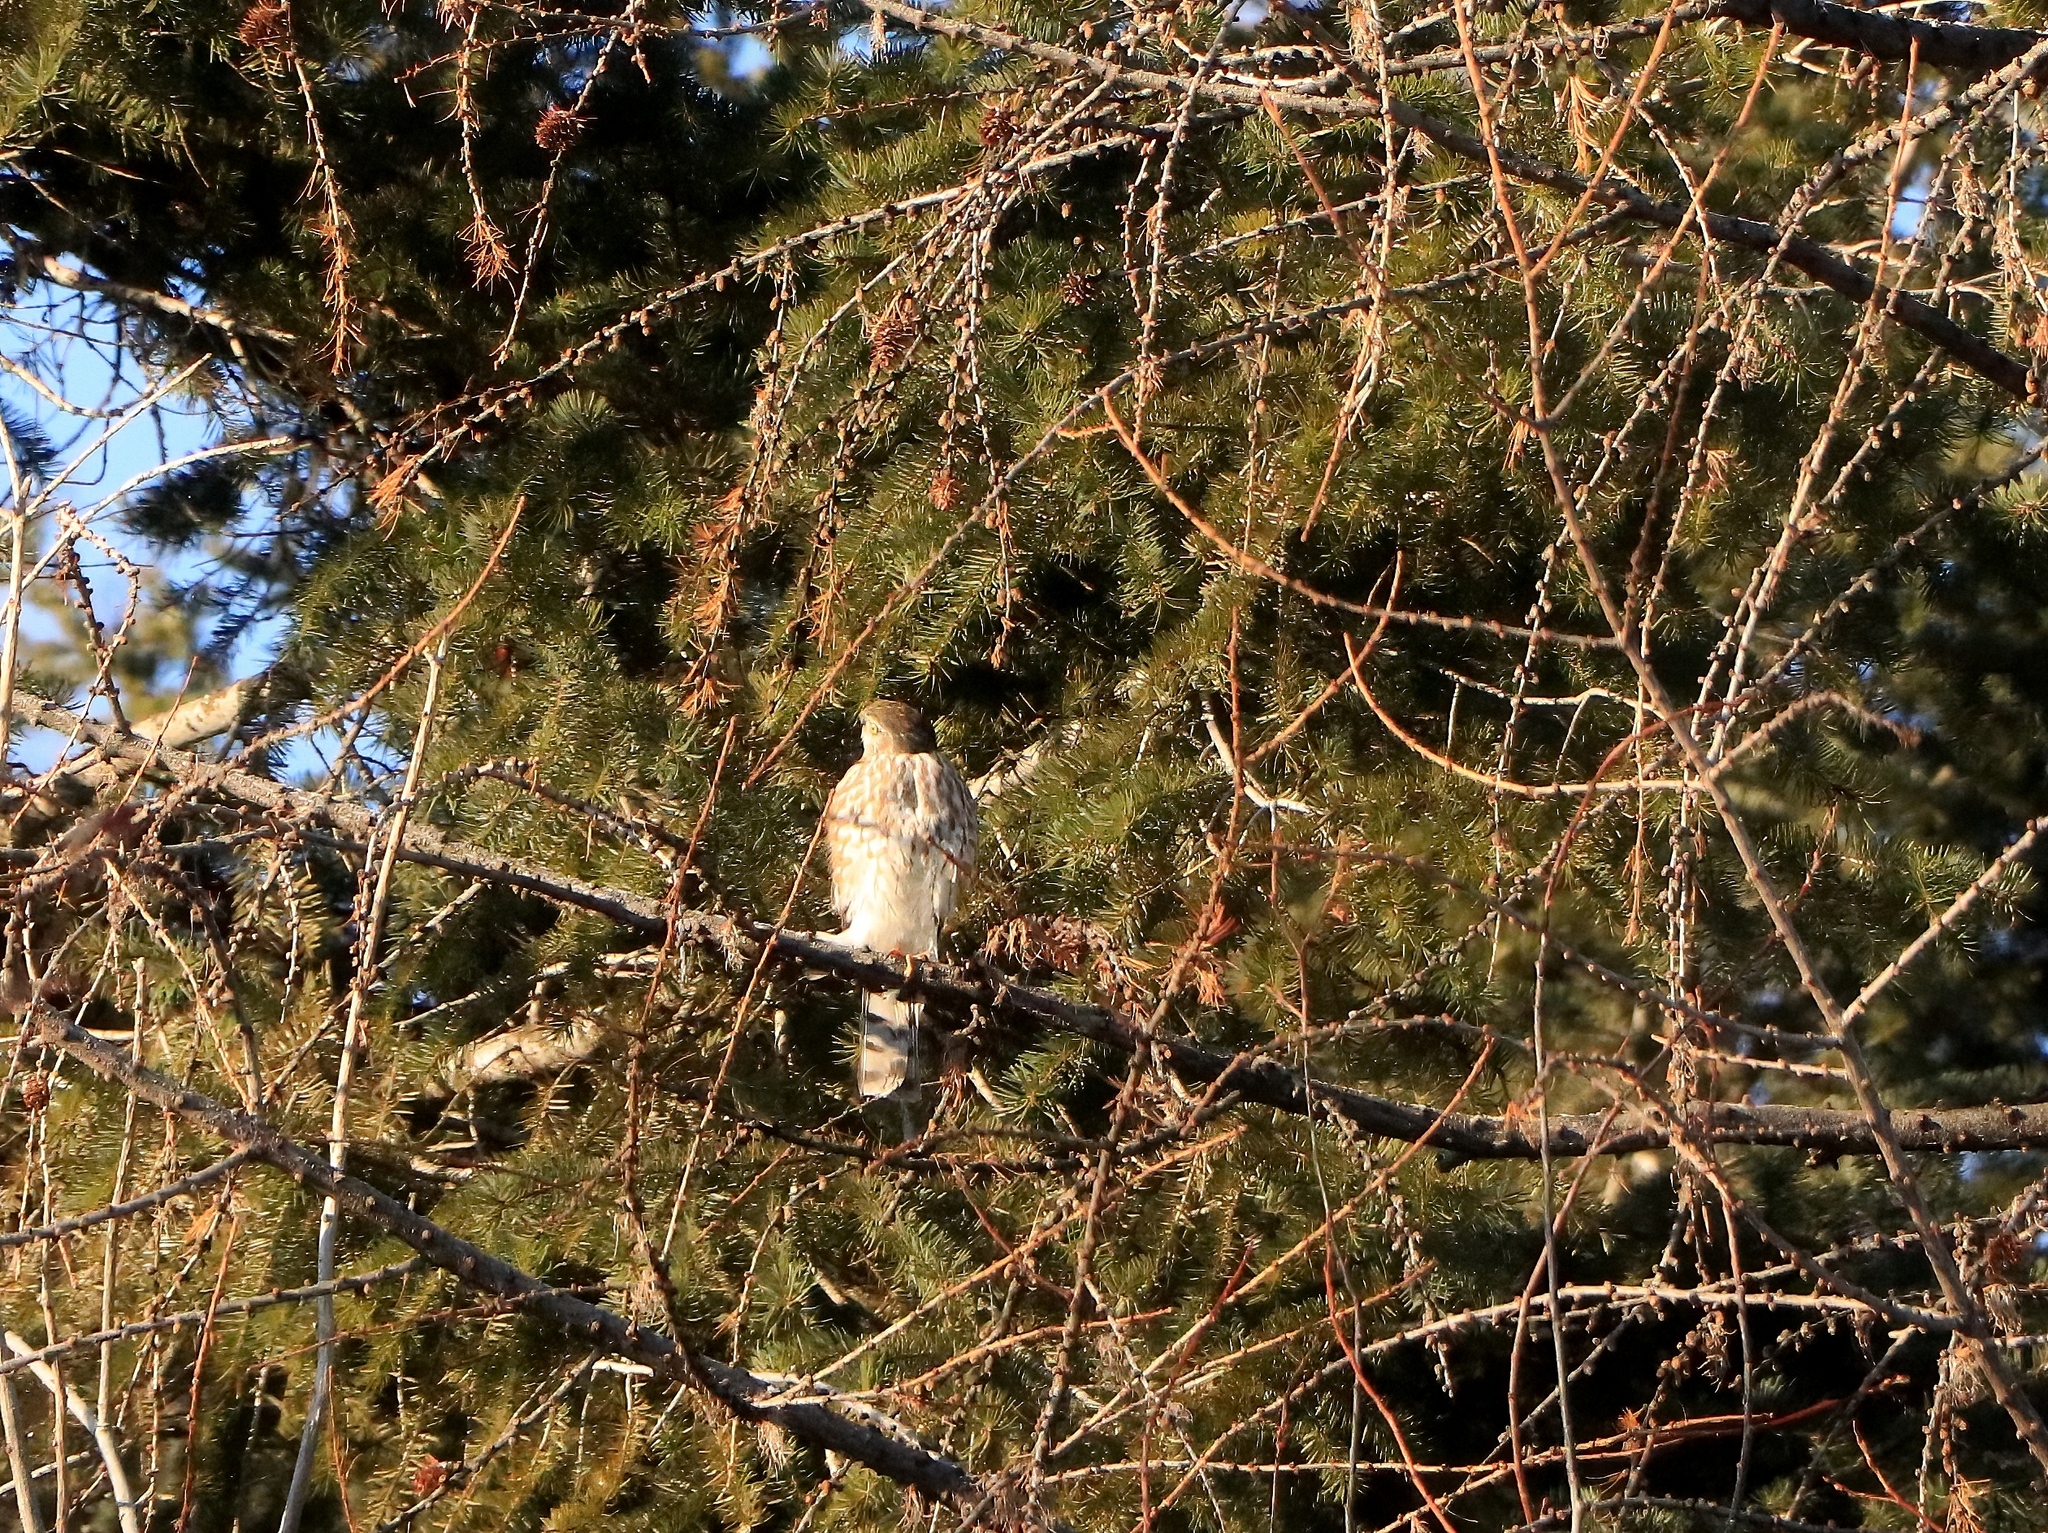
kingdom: Animalia
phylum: Chordata
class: Aves
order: Accipitriformes
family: Accipitridae
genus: Accipiter
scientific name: Accipiter striatus
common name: Sharp-shinned hawk
